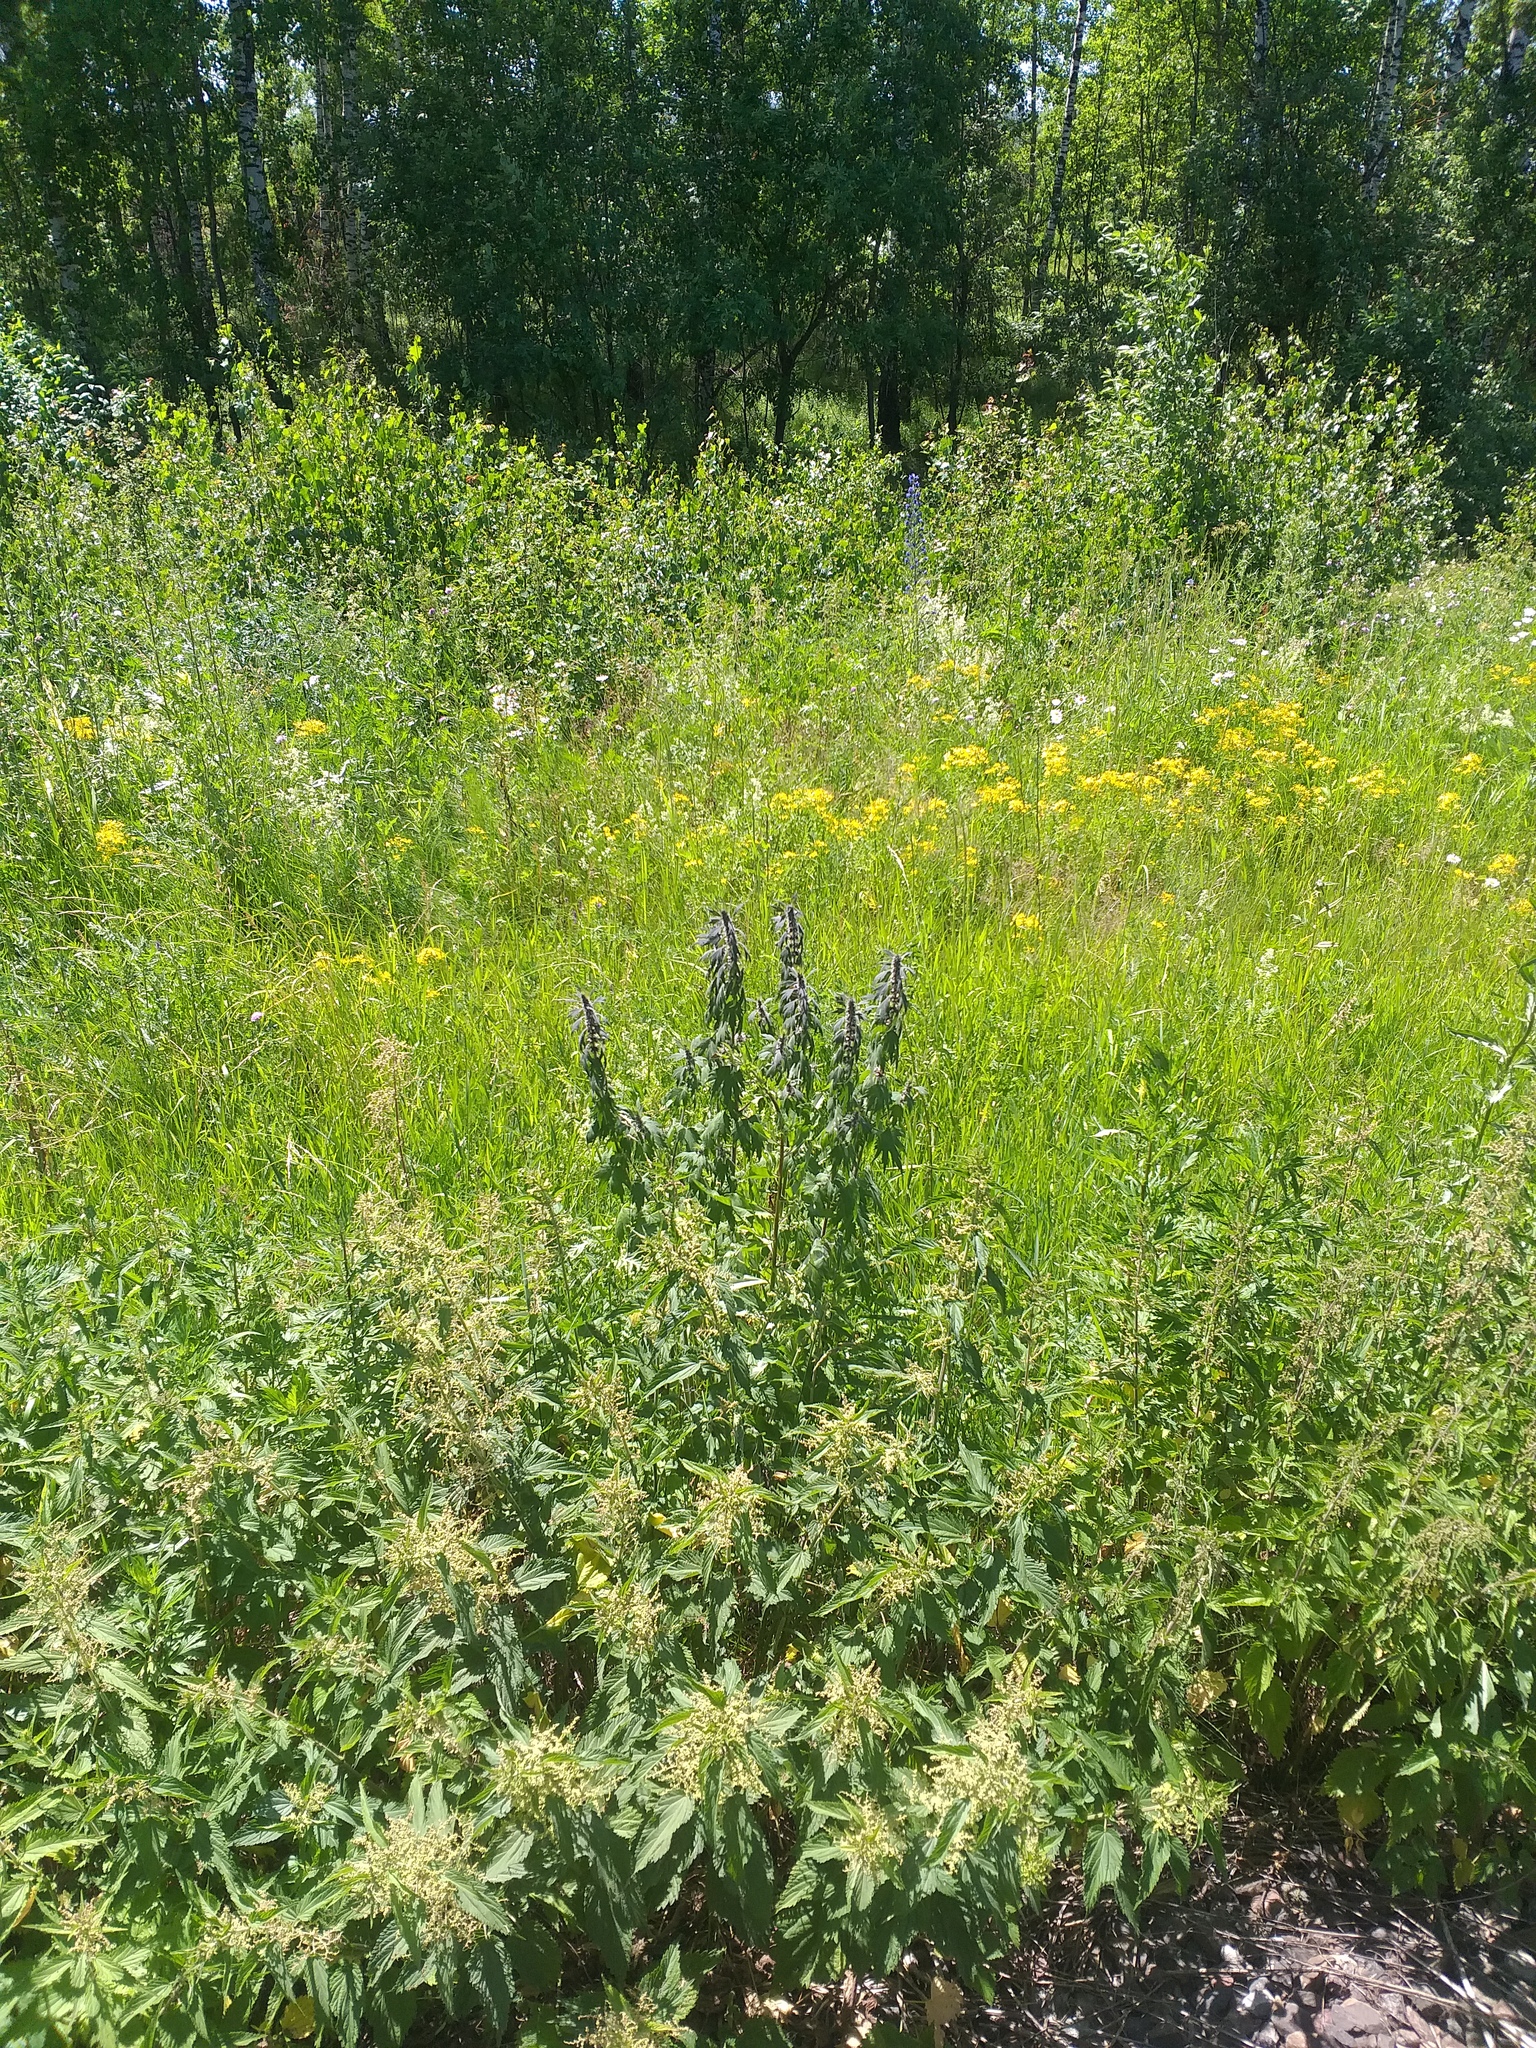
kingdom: Plantae
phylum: Tracheophyta
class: Magnoliopsida
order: Lamiales
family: Lamiaceae
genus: Leonurus
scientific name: Leonurus quinquelobatus
